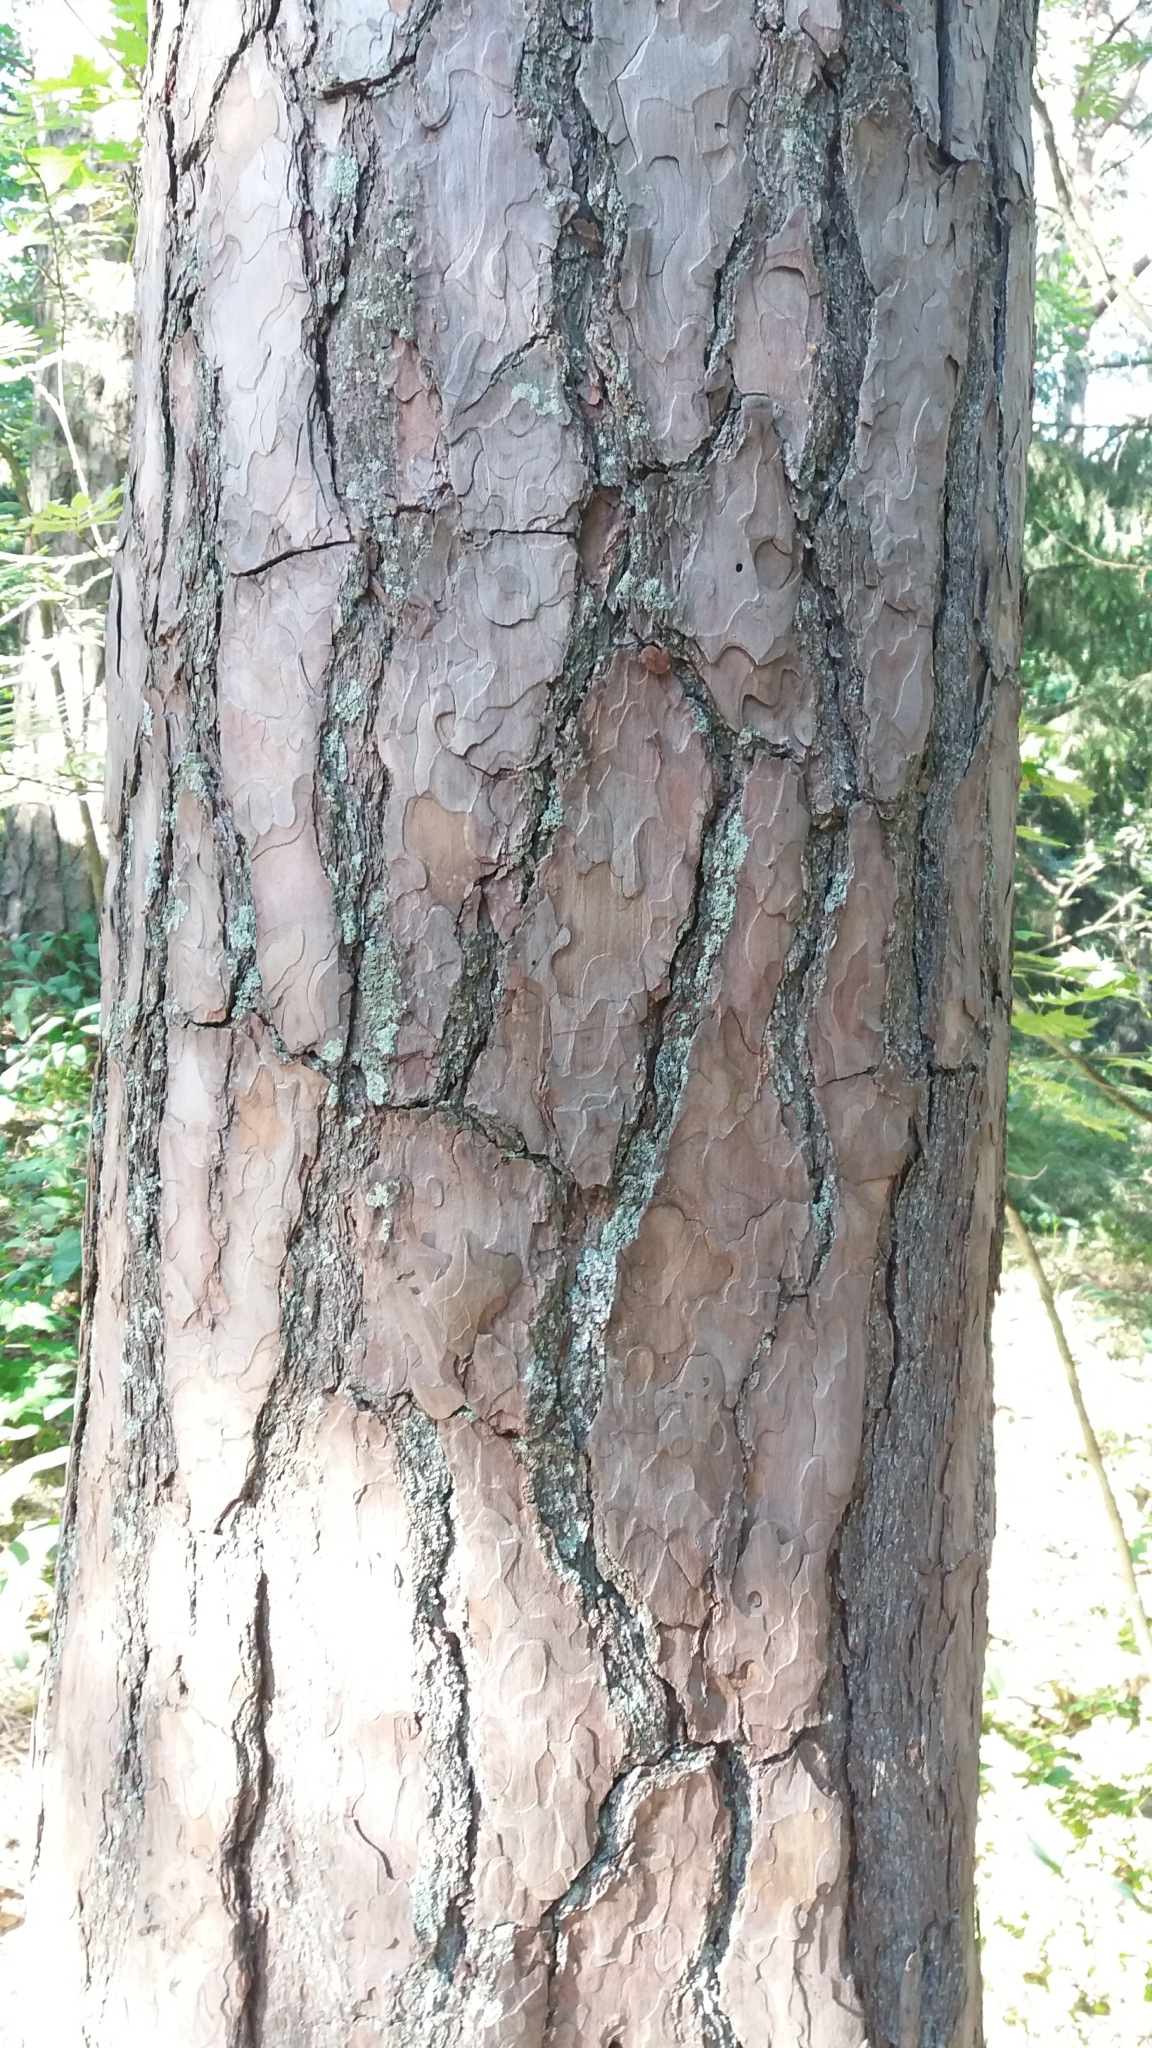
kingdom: Plantae
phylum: Tracheophyta
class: Pinopsida
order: Pinales
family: Pinaceae
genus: Pinus
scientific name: Pinus sylvestris
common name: Scots pine
